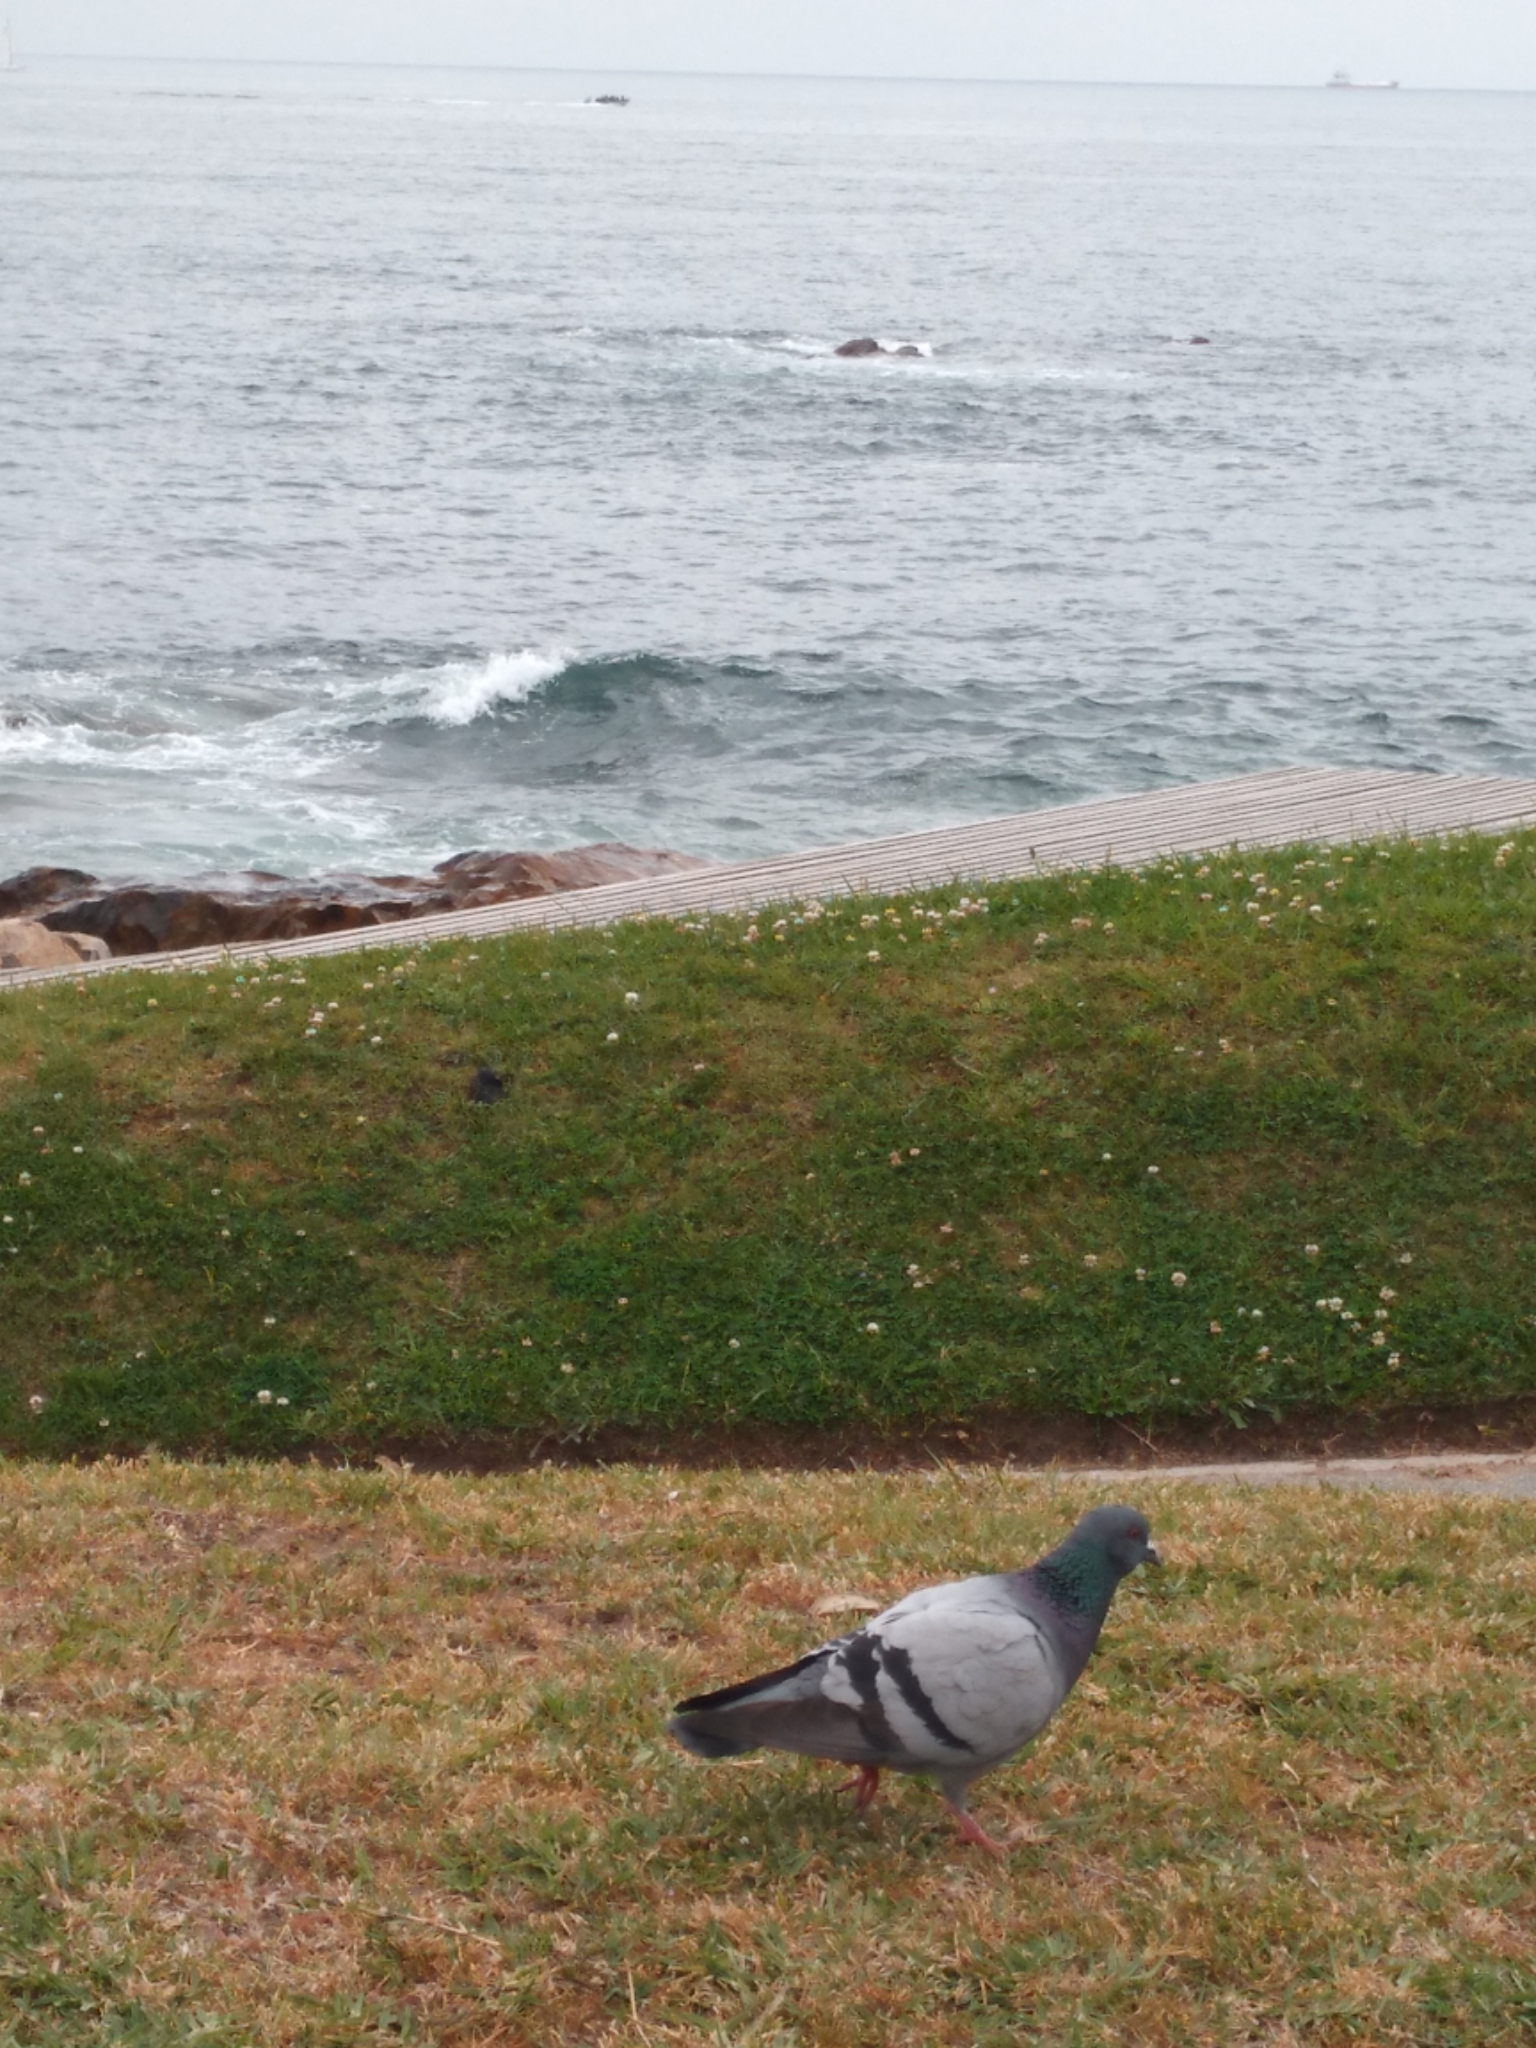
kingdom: Animalia
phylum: Chordata
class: Aves
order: Columbiformes
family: Columbidae
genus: Columba
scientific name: Columba livia
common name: Rock pigeon
